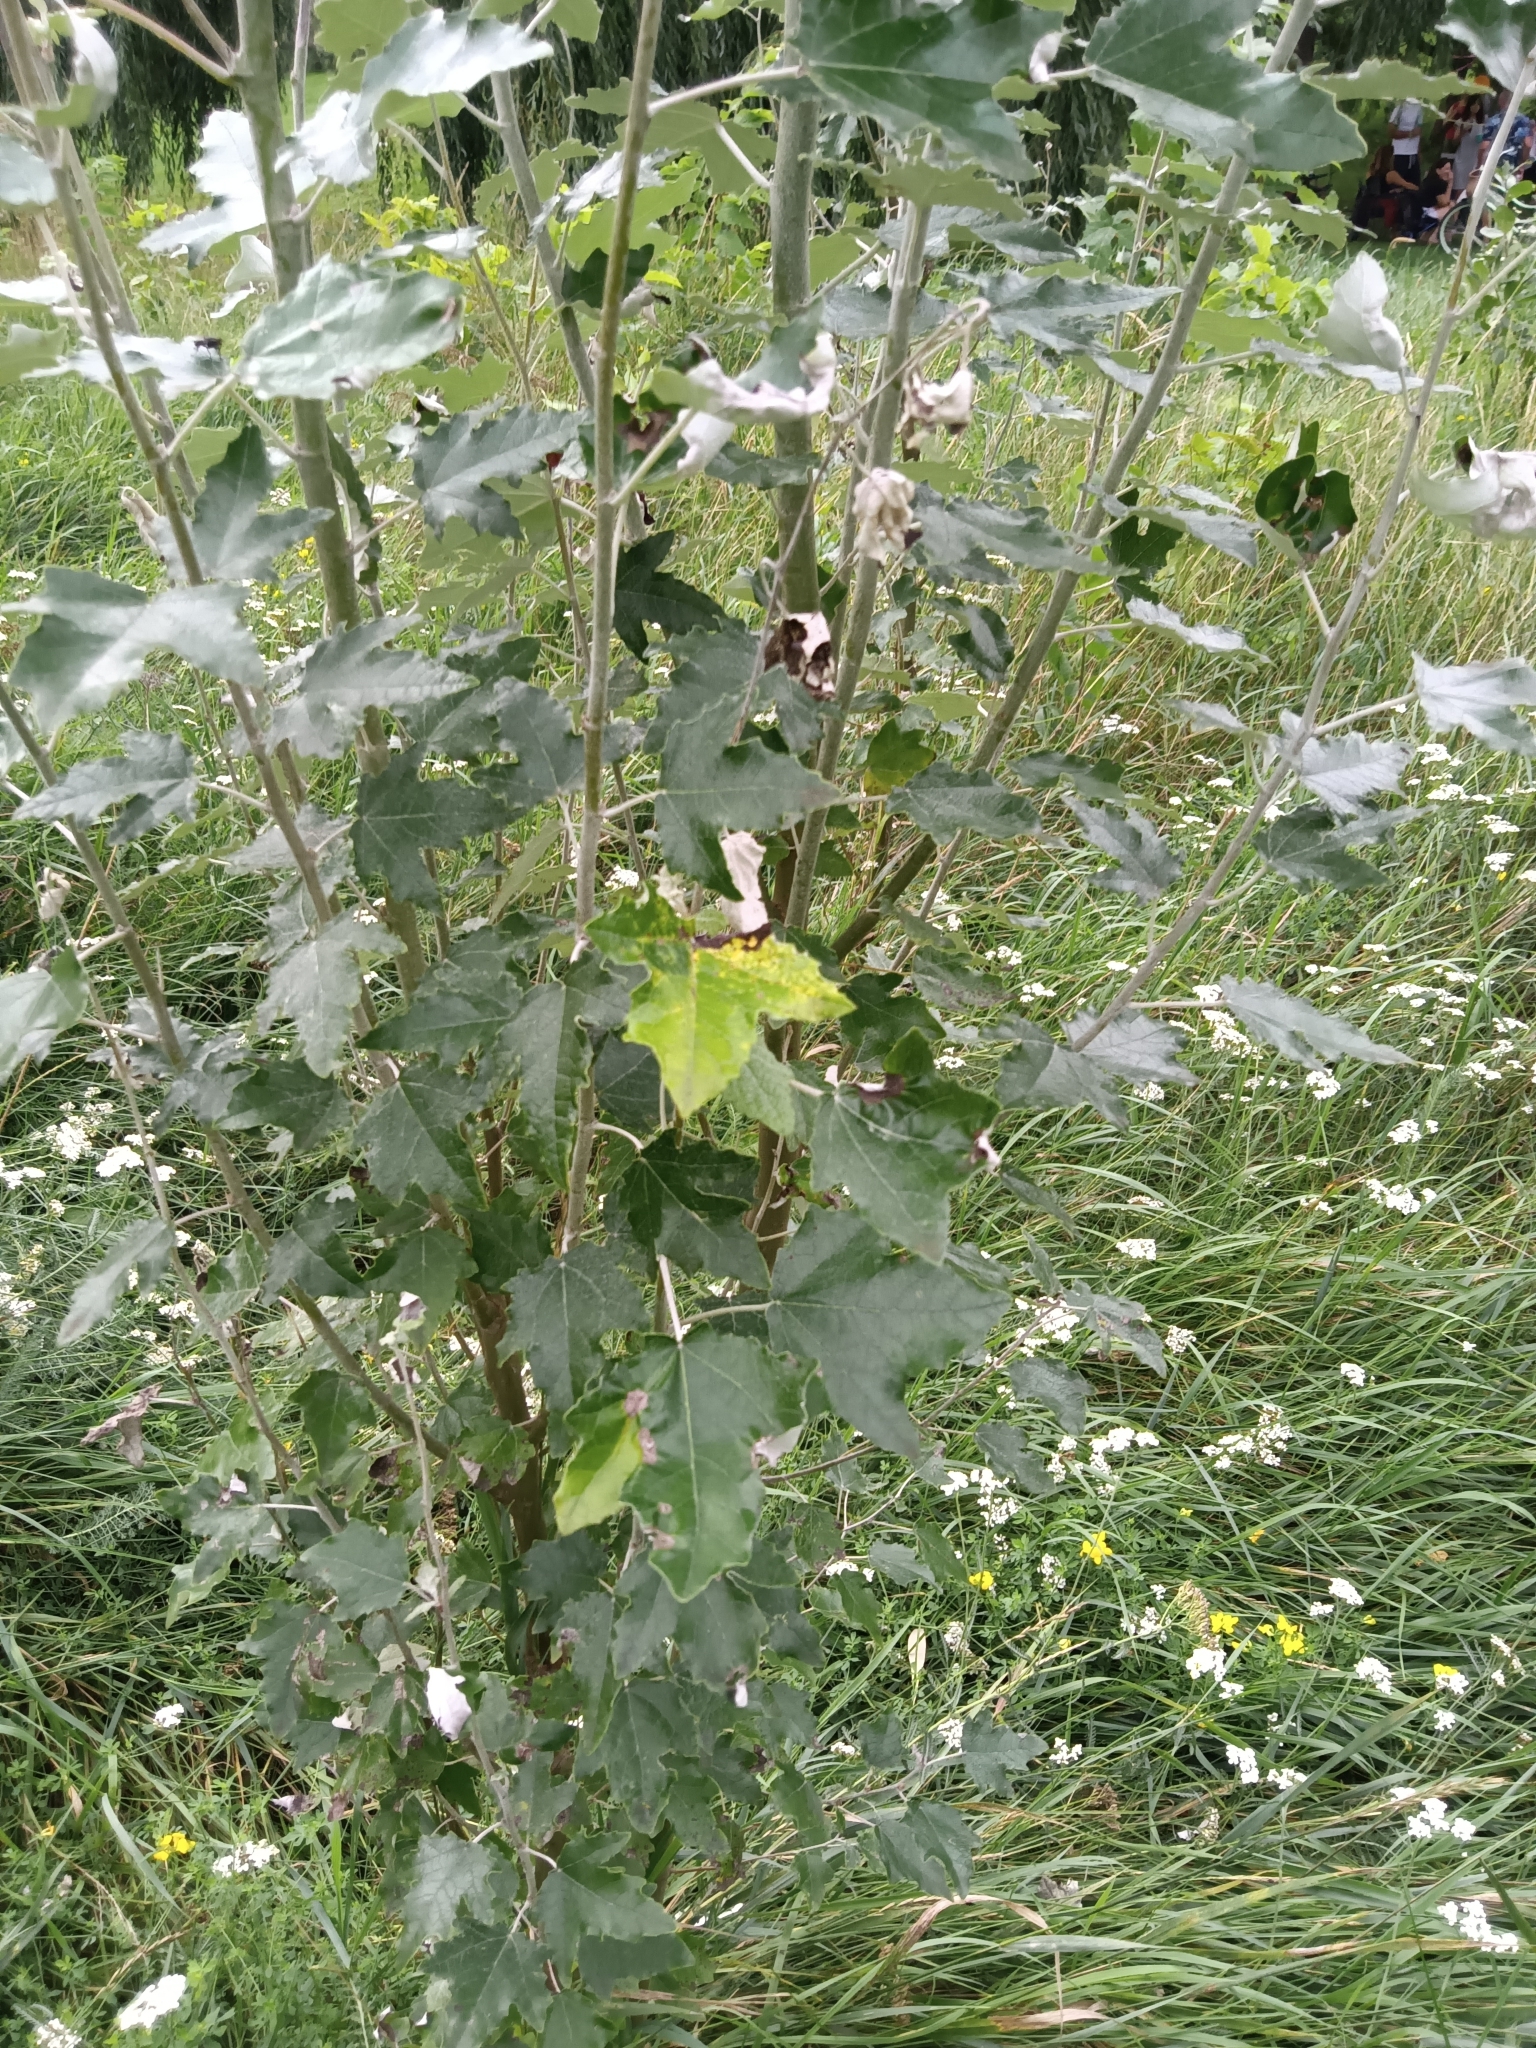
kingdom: Plantae
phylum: Tracheophyta
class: Magnoliopsida
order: Malpighiales
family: Salicaceae
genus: Populus
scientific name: Populus alba
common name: White poplar
